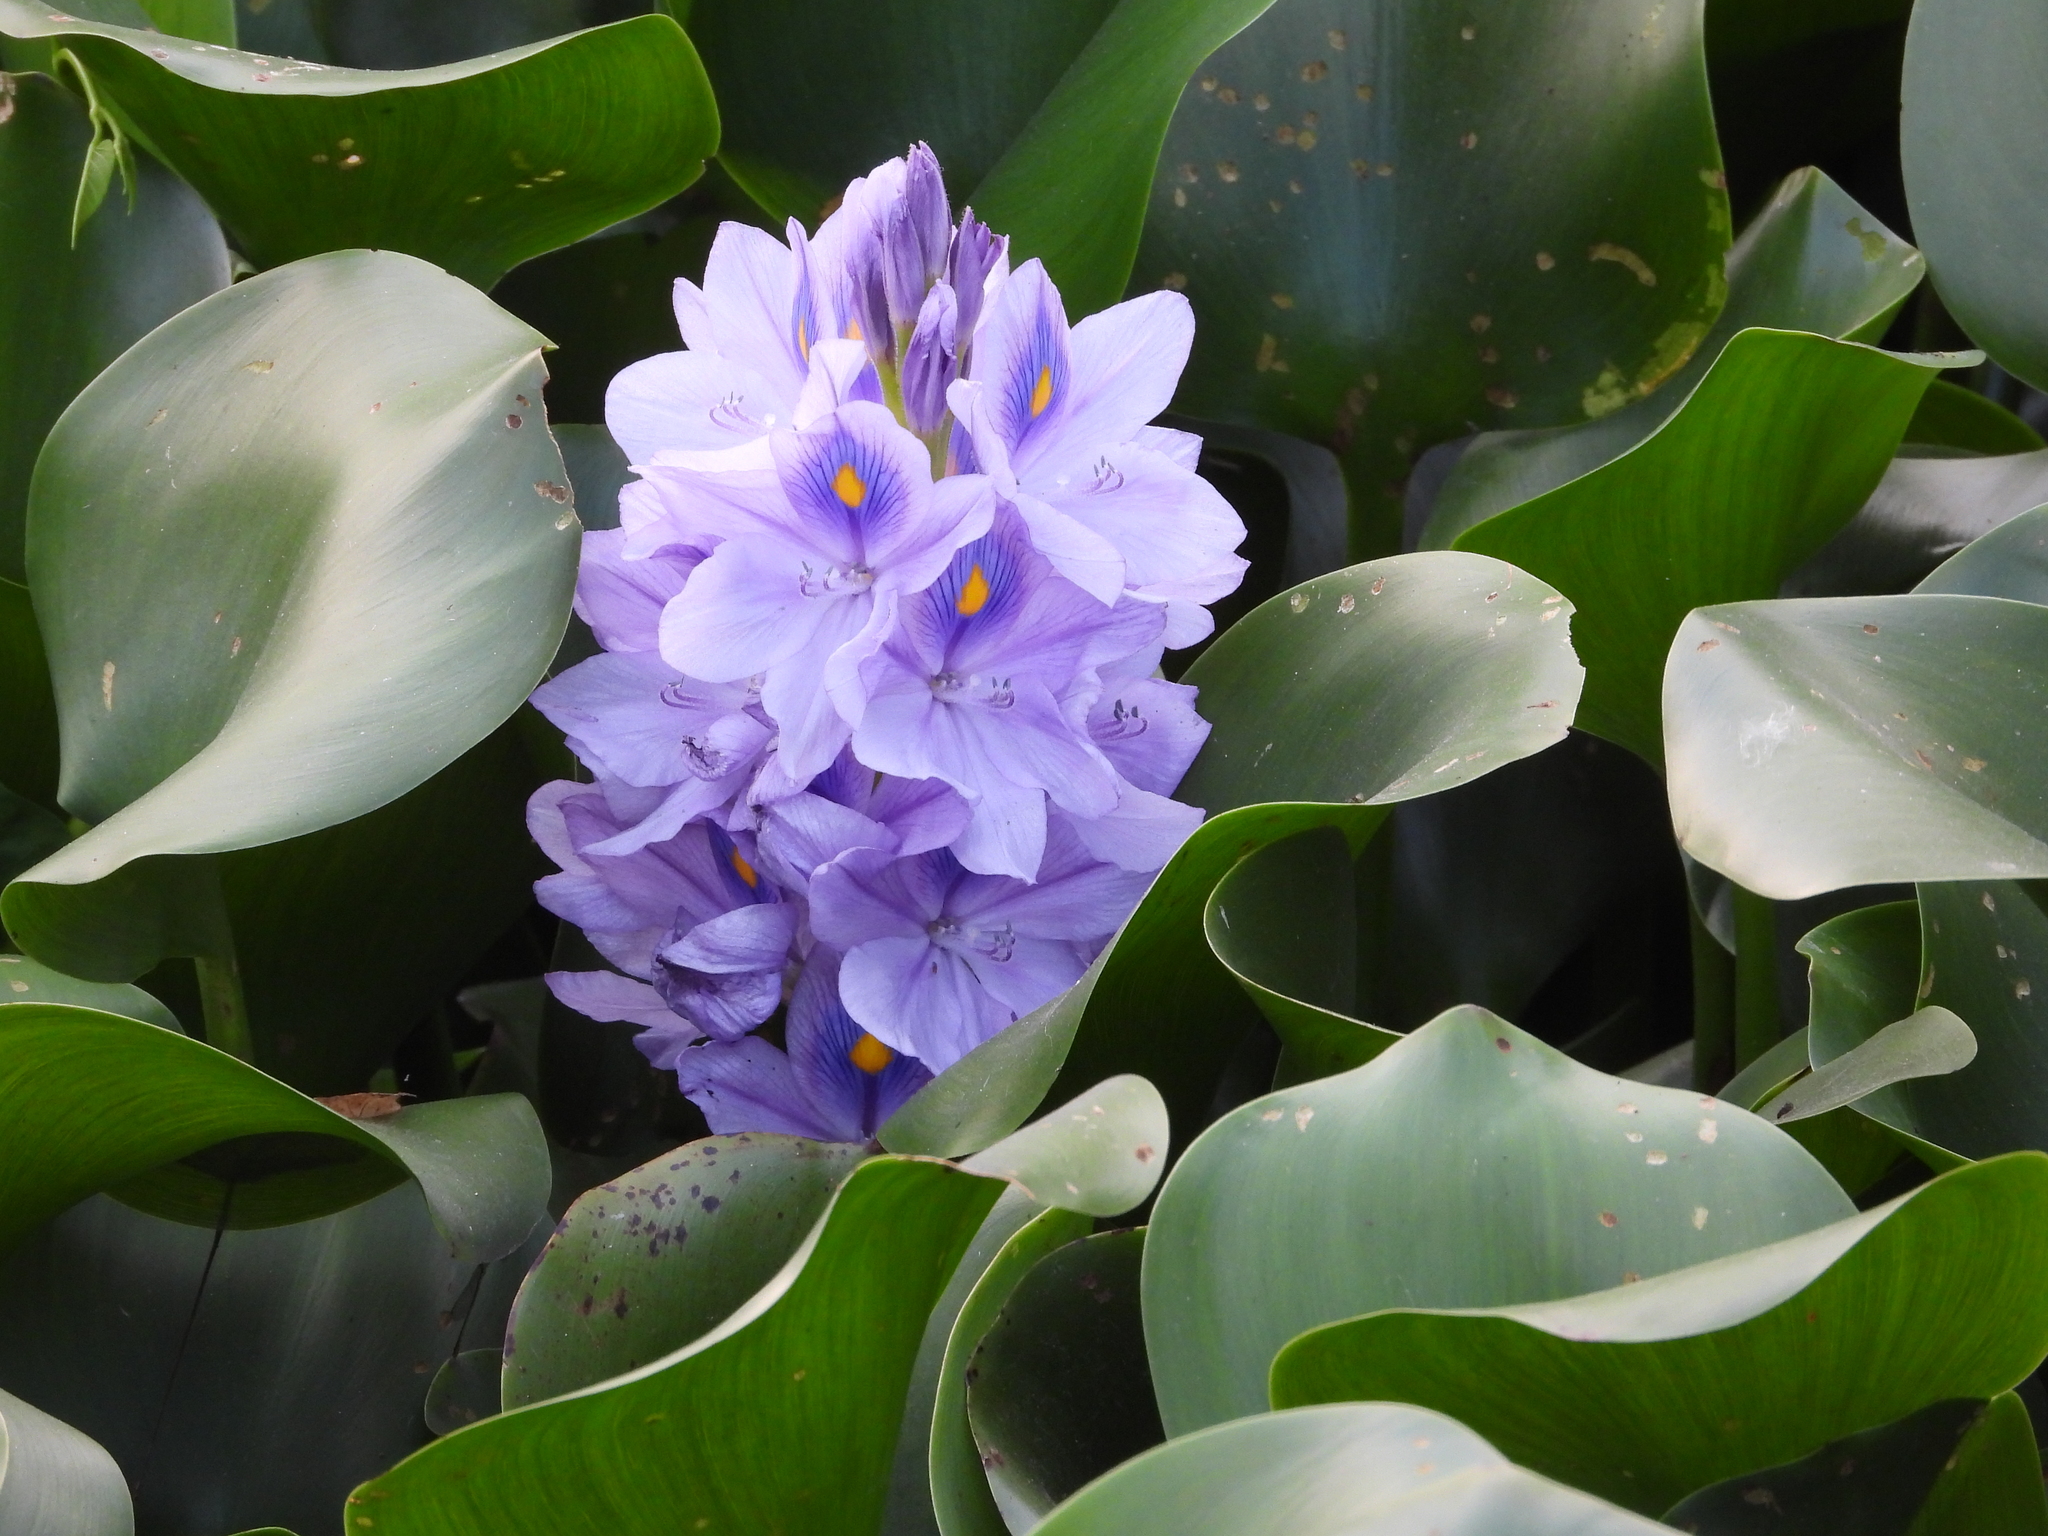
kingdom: Plantae
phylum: Tracheophyta
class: Liliopsida
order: Commelinales
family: Pontederiaceae
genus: Pontederia
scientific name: Pontederia crassipes
